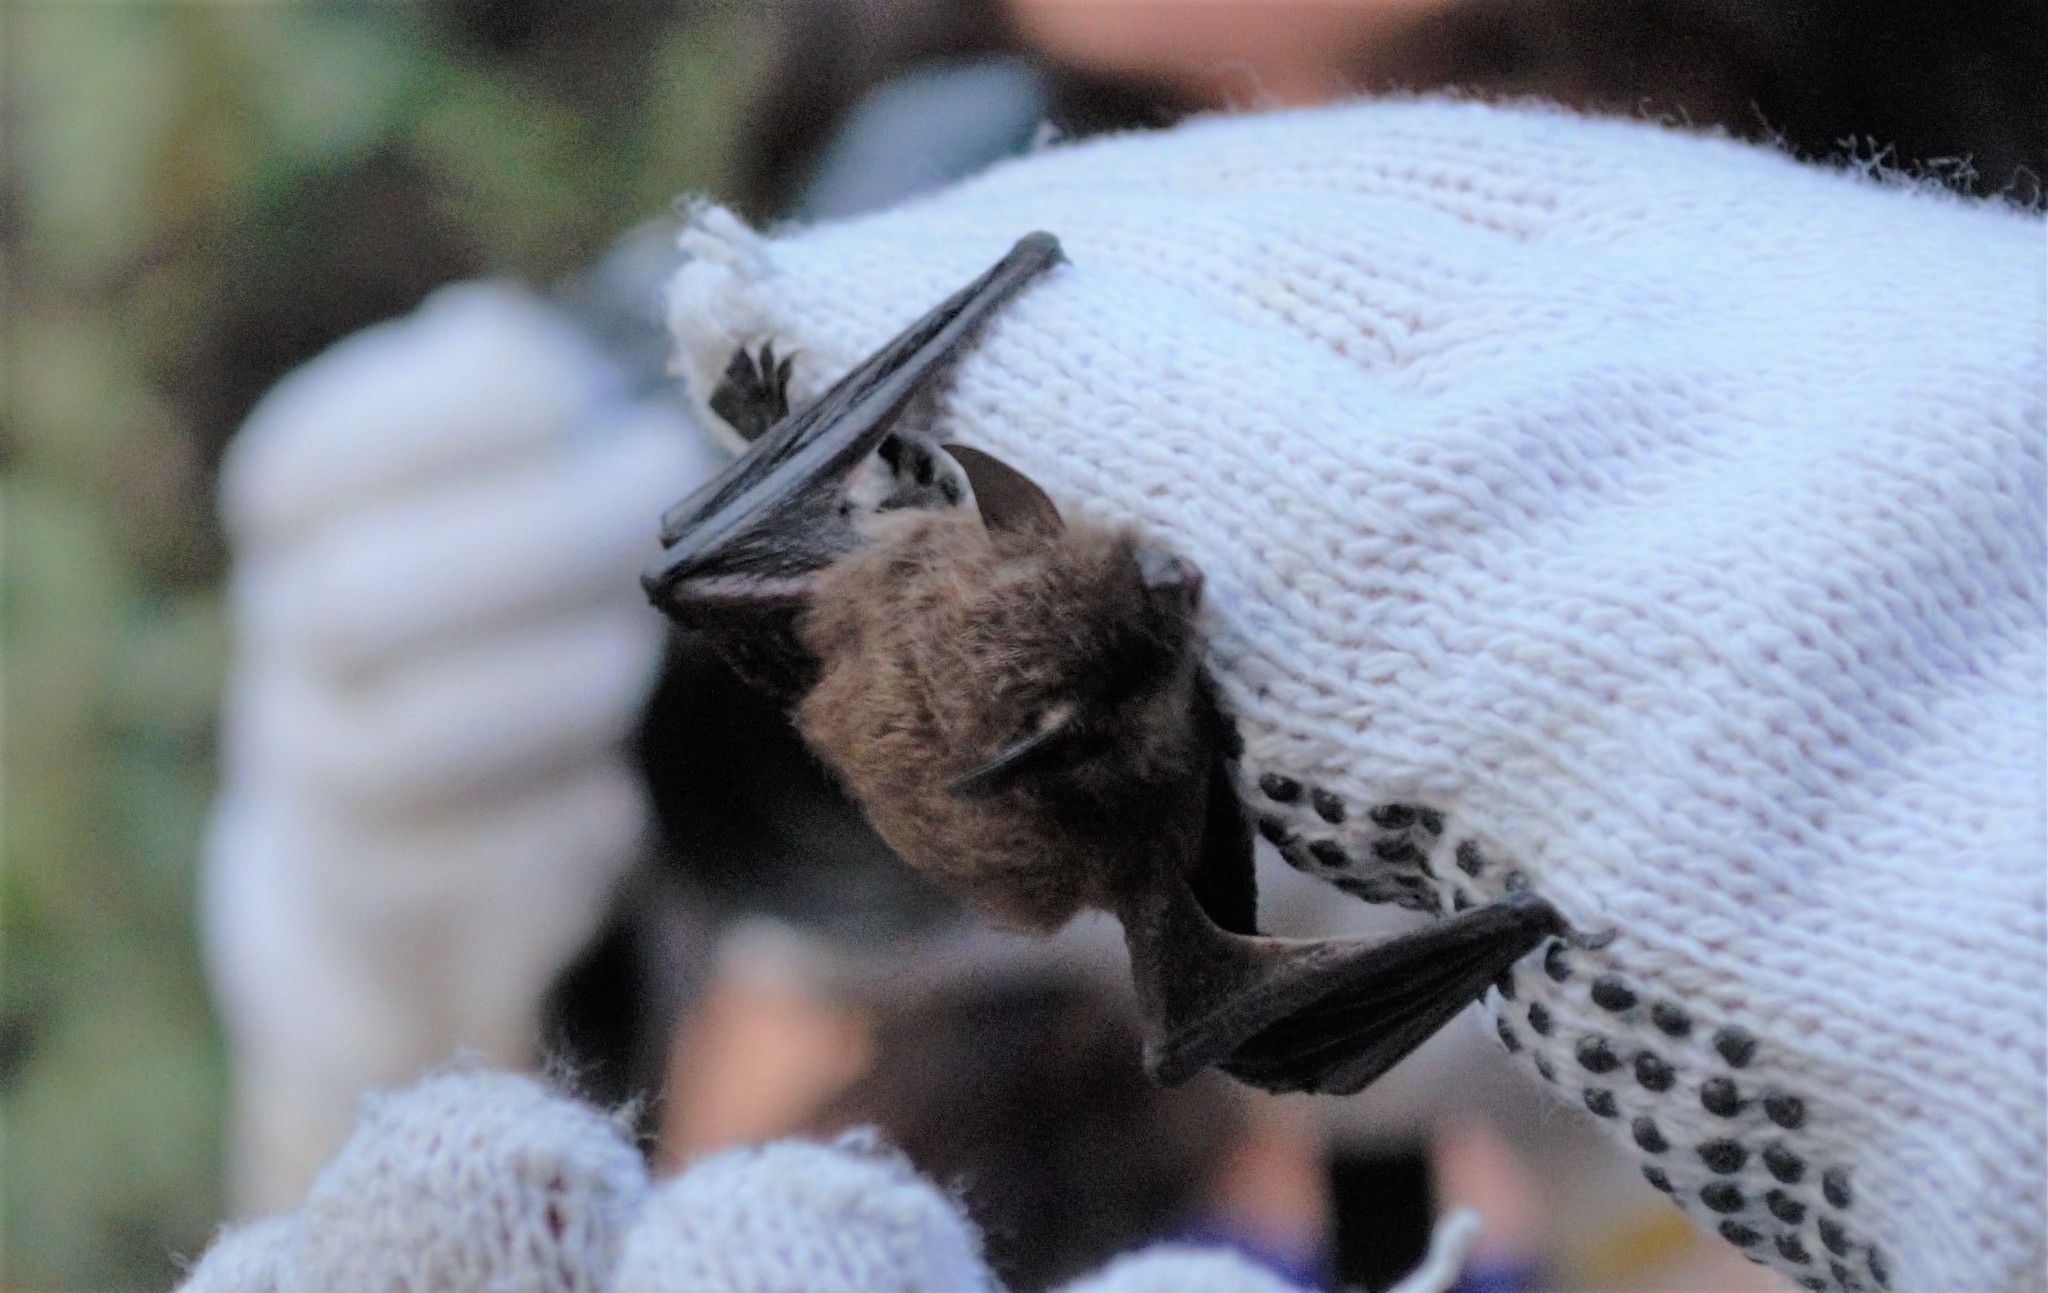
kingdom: Animalia
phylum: Chordata
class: Mammalia
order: Chiroptera
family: Vespertilionidae
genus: Myotis
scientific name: Myotis chiloensis
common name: Chilean myotis
